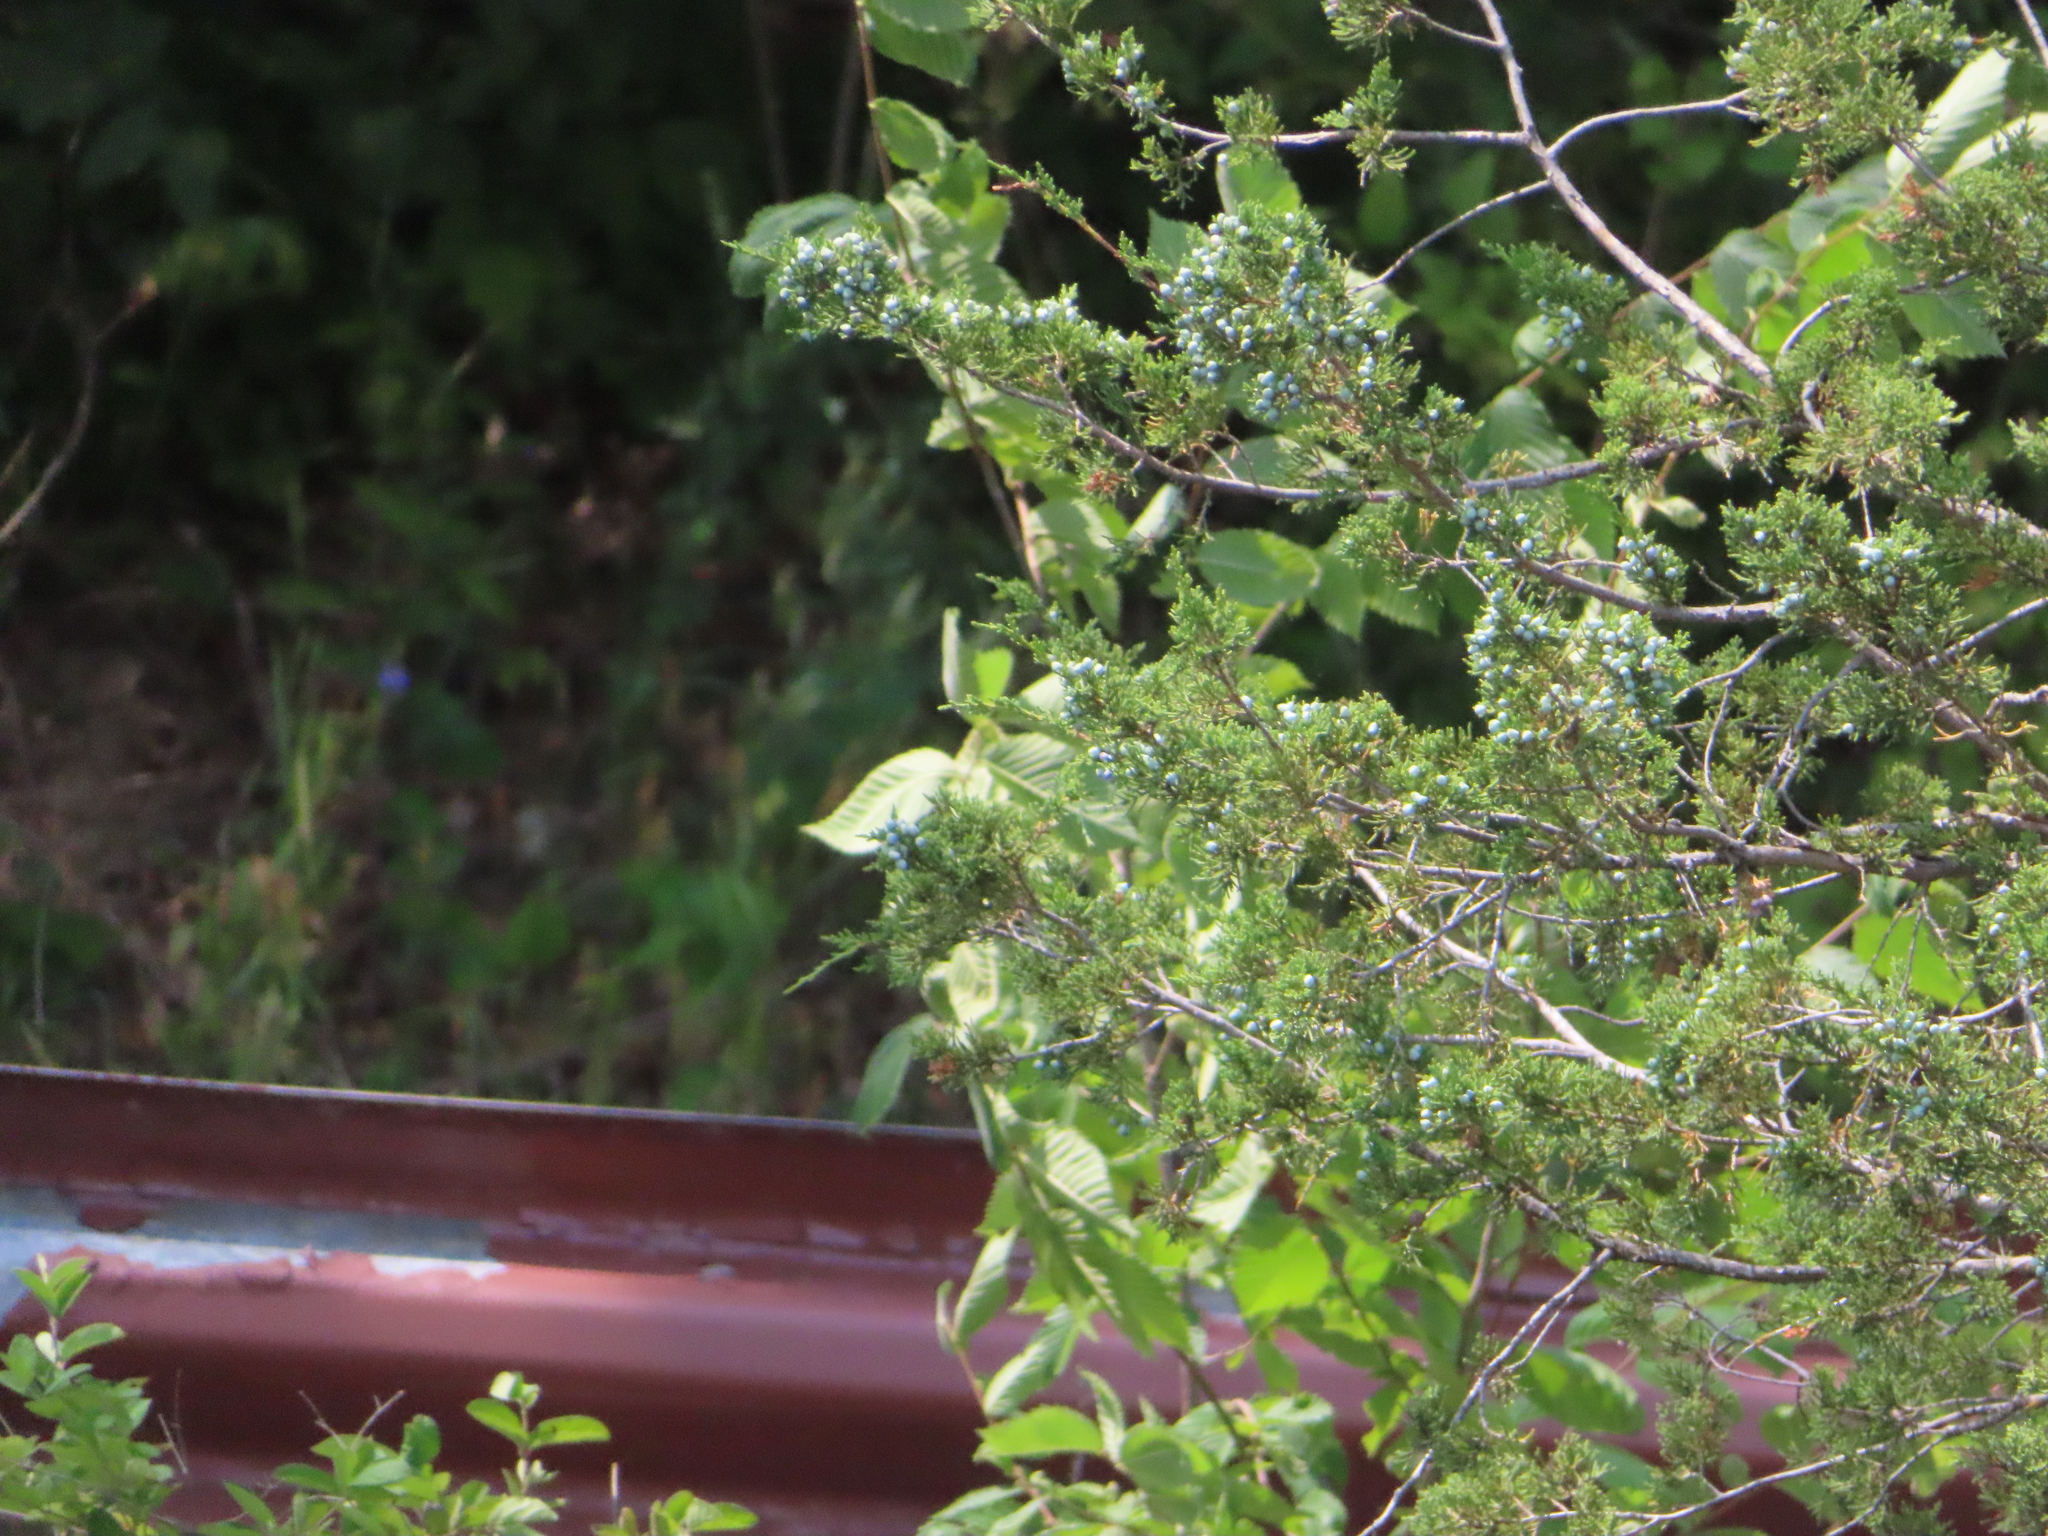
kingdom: Plantae
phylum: Tracheophyta
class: Pinopsida
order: Pinales
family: Cupressaceae
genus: Juniperus
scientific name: Juniperus virginiana
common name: Red juniper
